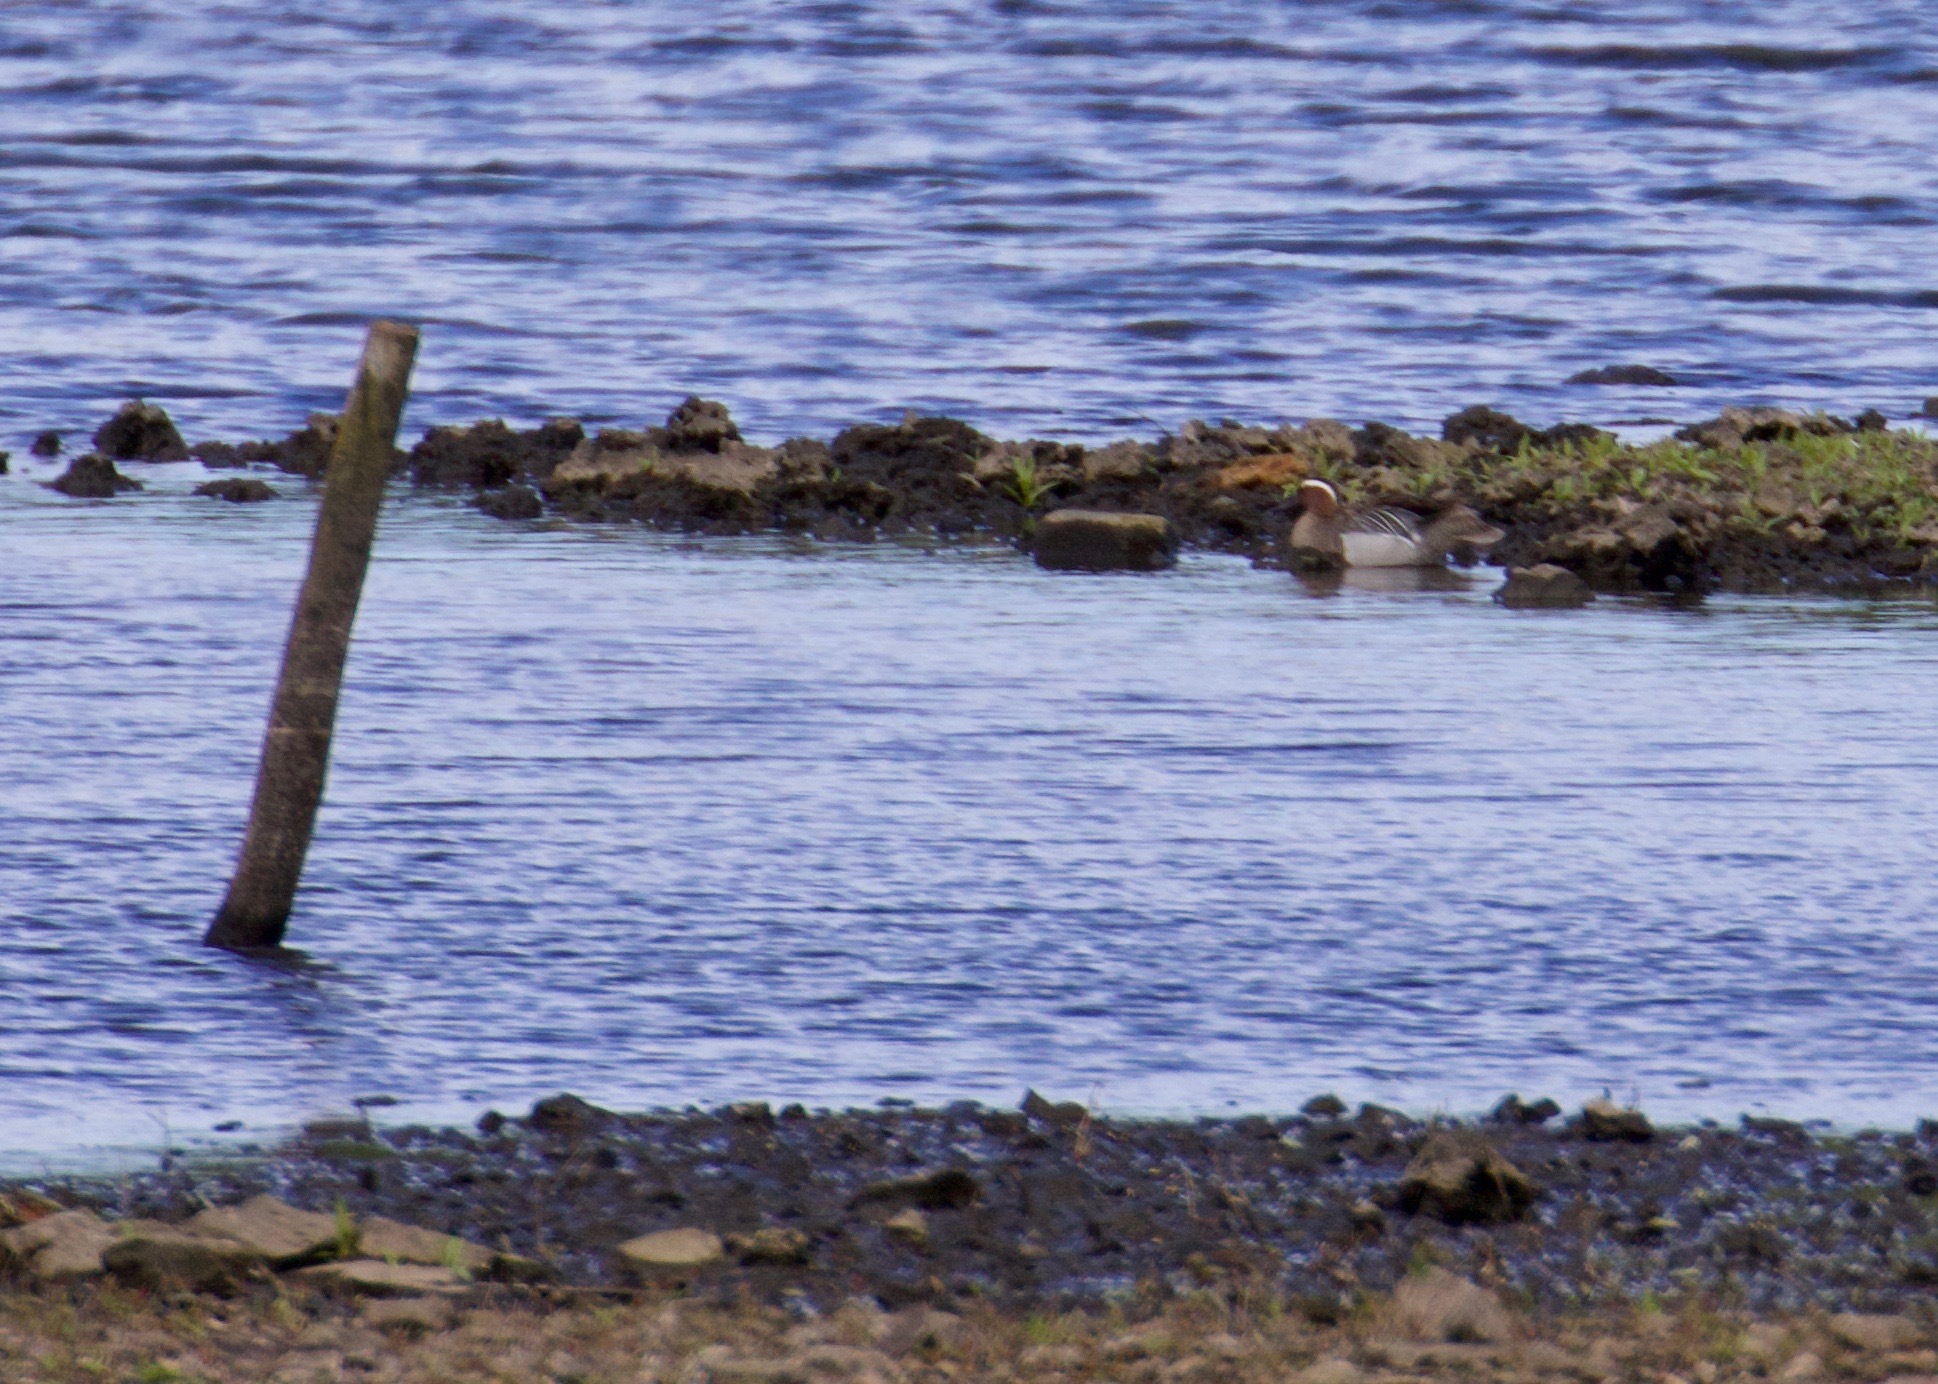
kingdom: Animalia
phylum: Chordata
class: Aves
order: Anseriformes
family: Anatidae
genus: Spatula
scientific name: Spatula querquedula
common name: Garganey
